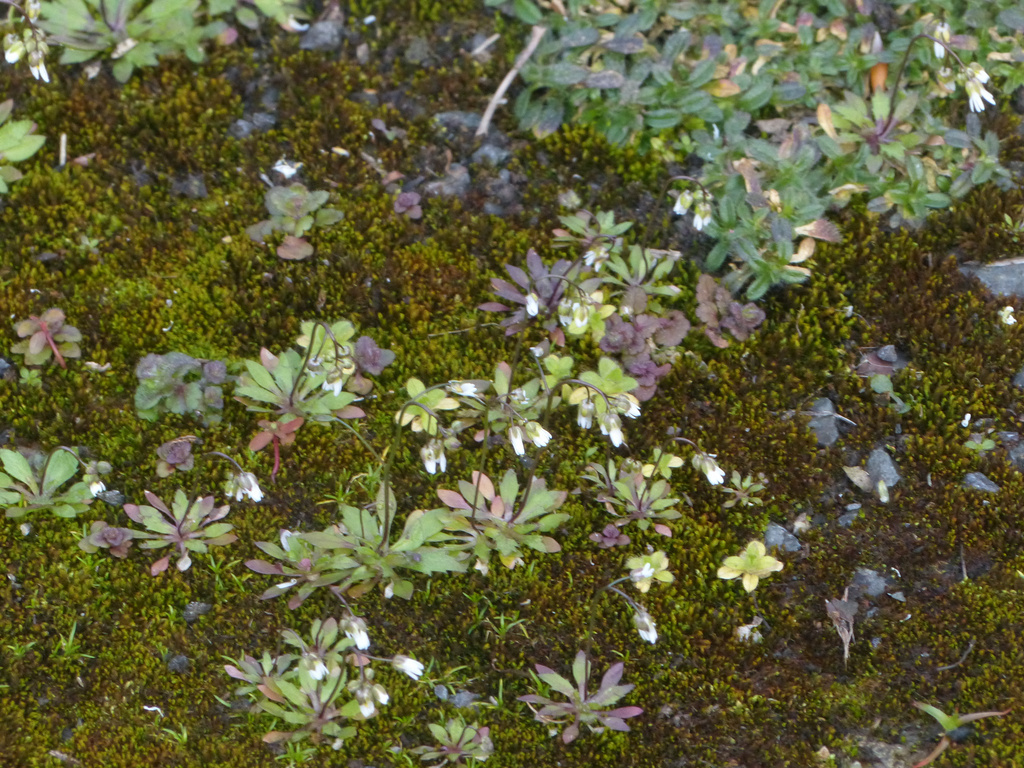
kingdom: Plantae
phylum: Tracheophyta
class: Magnoliopsida
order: Brassicales
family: Brassicaceae
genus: Draba
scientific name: Draba verna
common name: Spring draba
